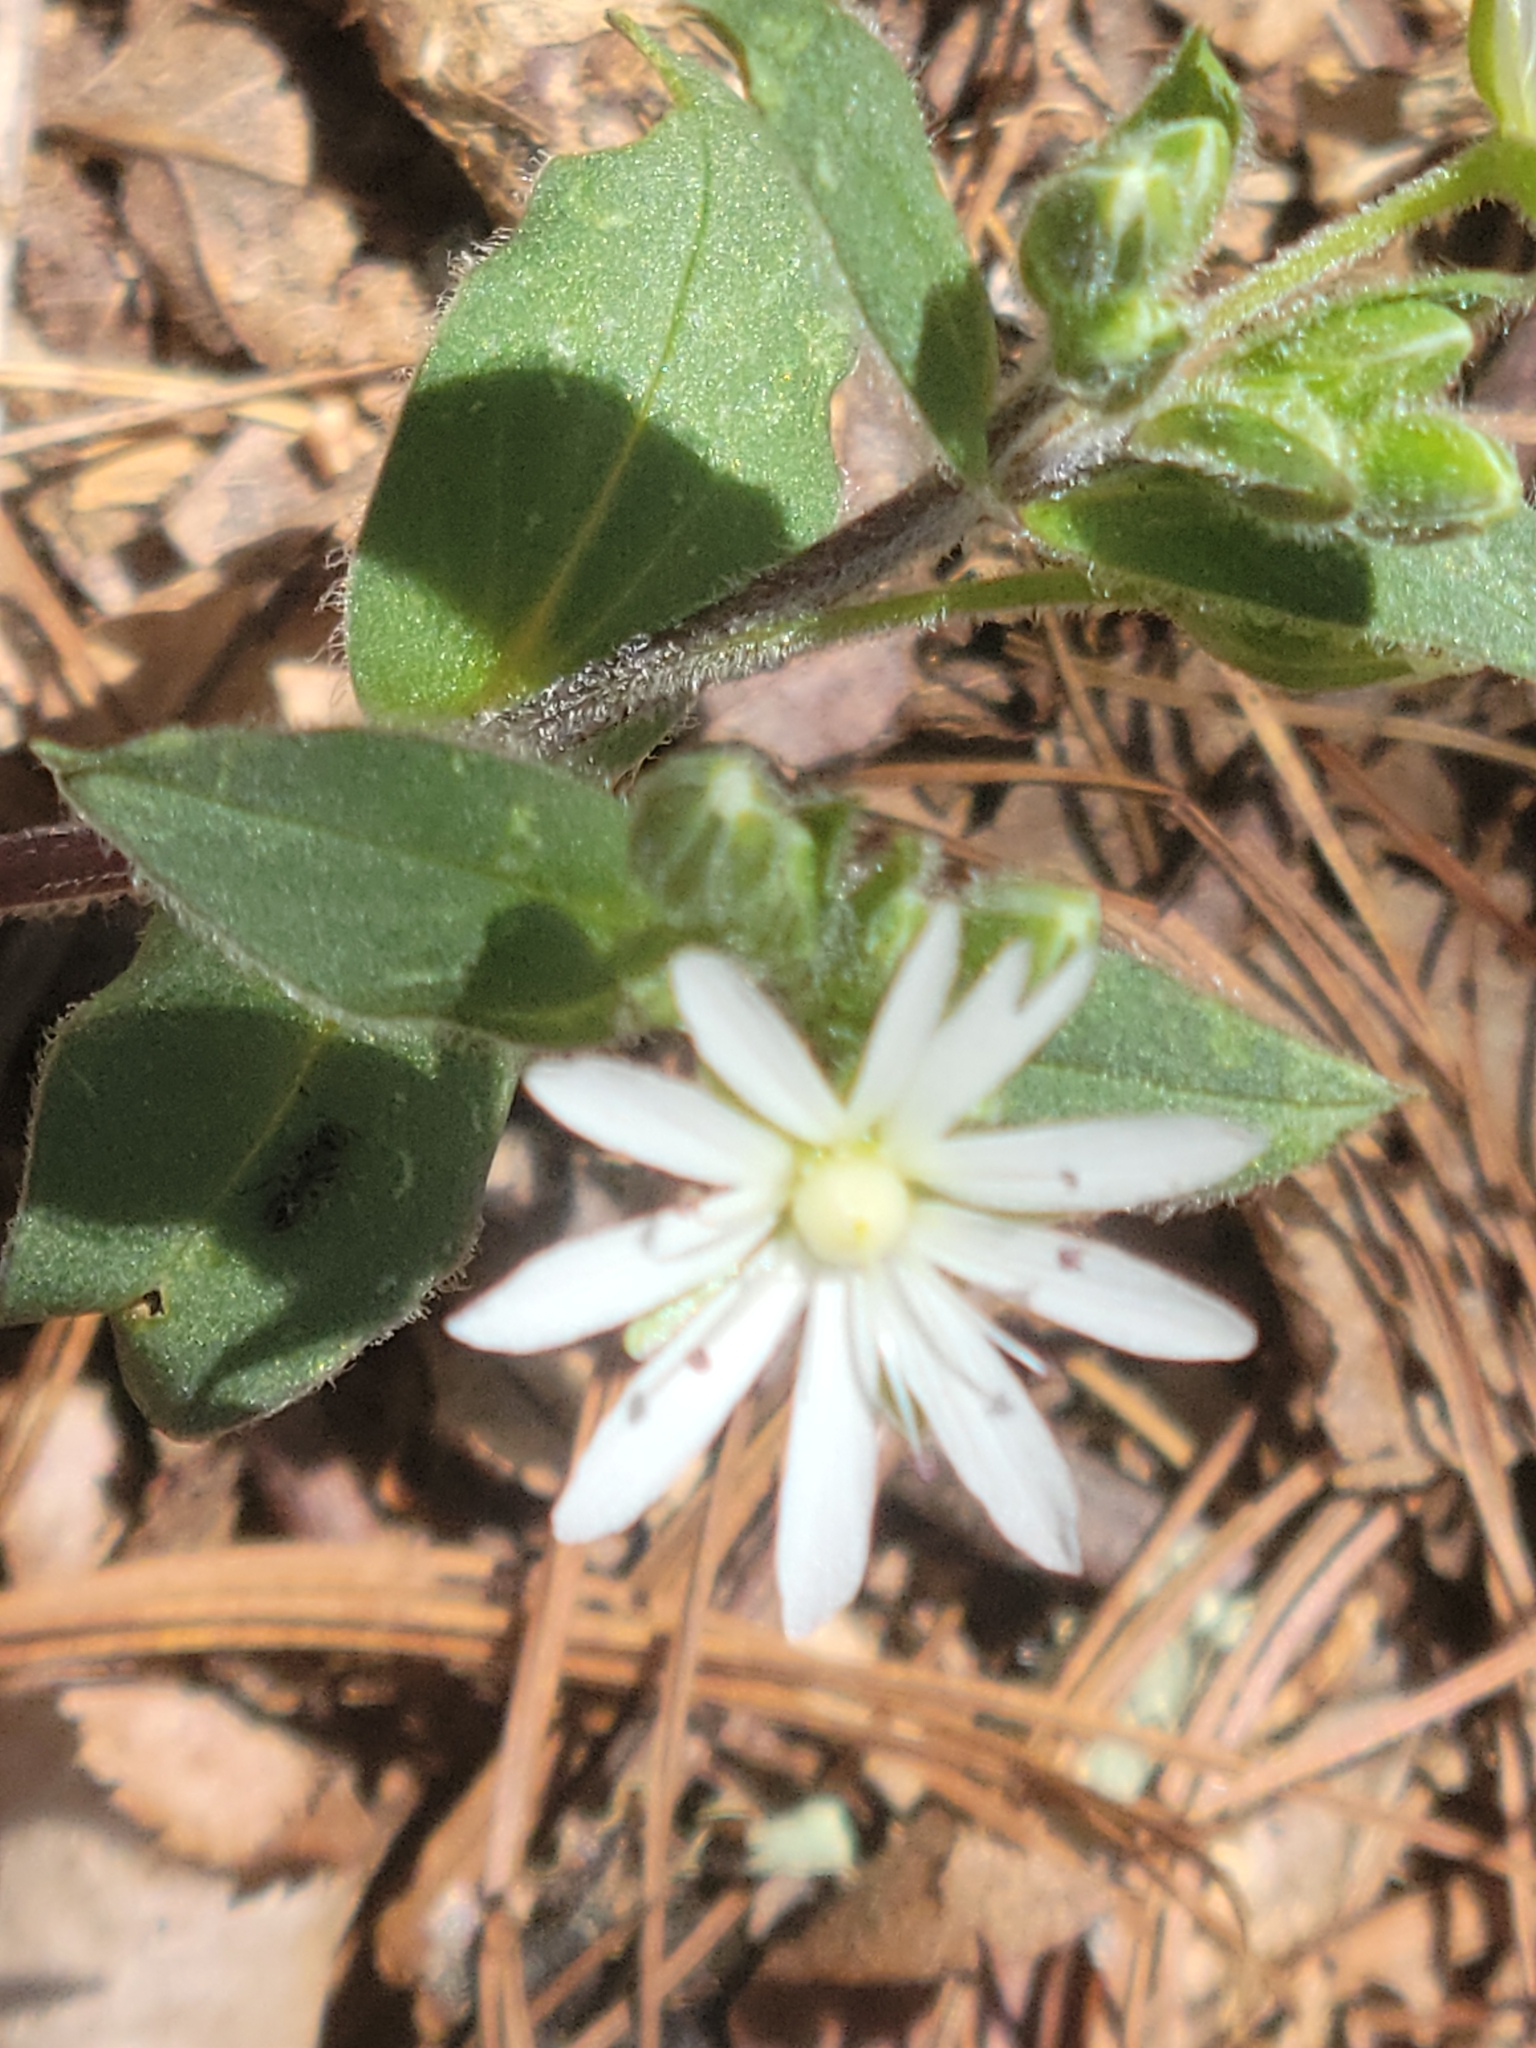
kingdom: Plantae
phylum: Tracheophyta
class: Magnoliopsida
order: Caryophyllales
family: Caryophyllaceae
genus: Stellaria
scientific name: Stellaria pubera
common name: Star chickweed
